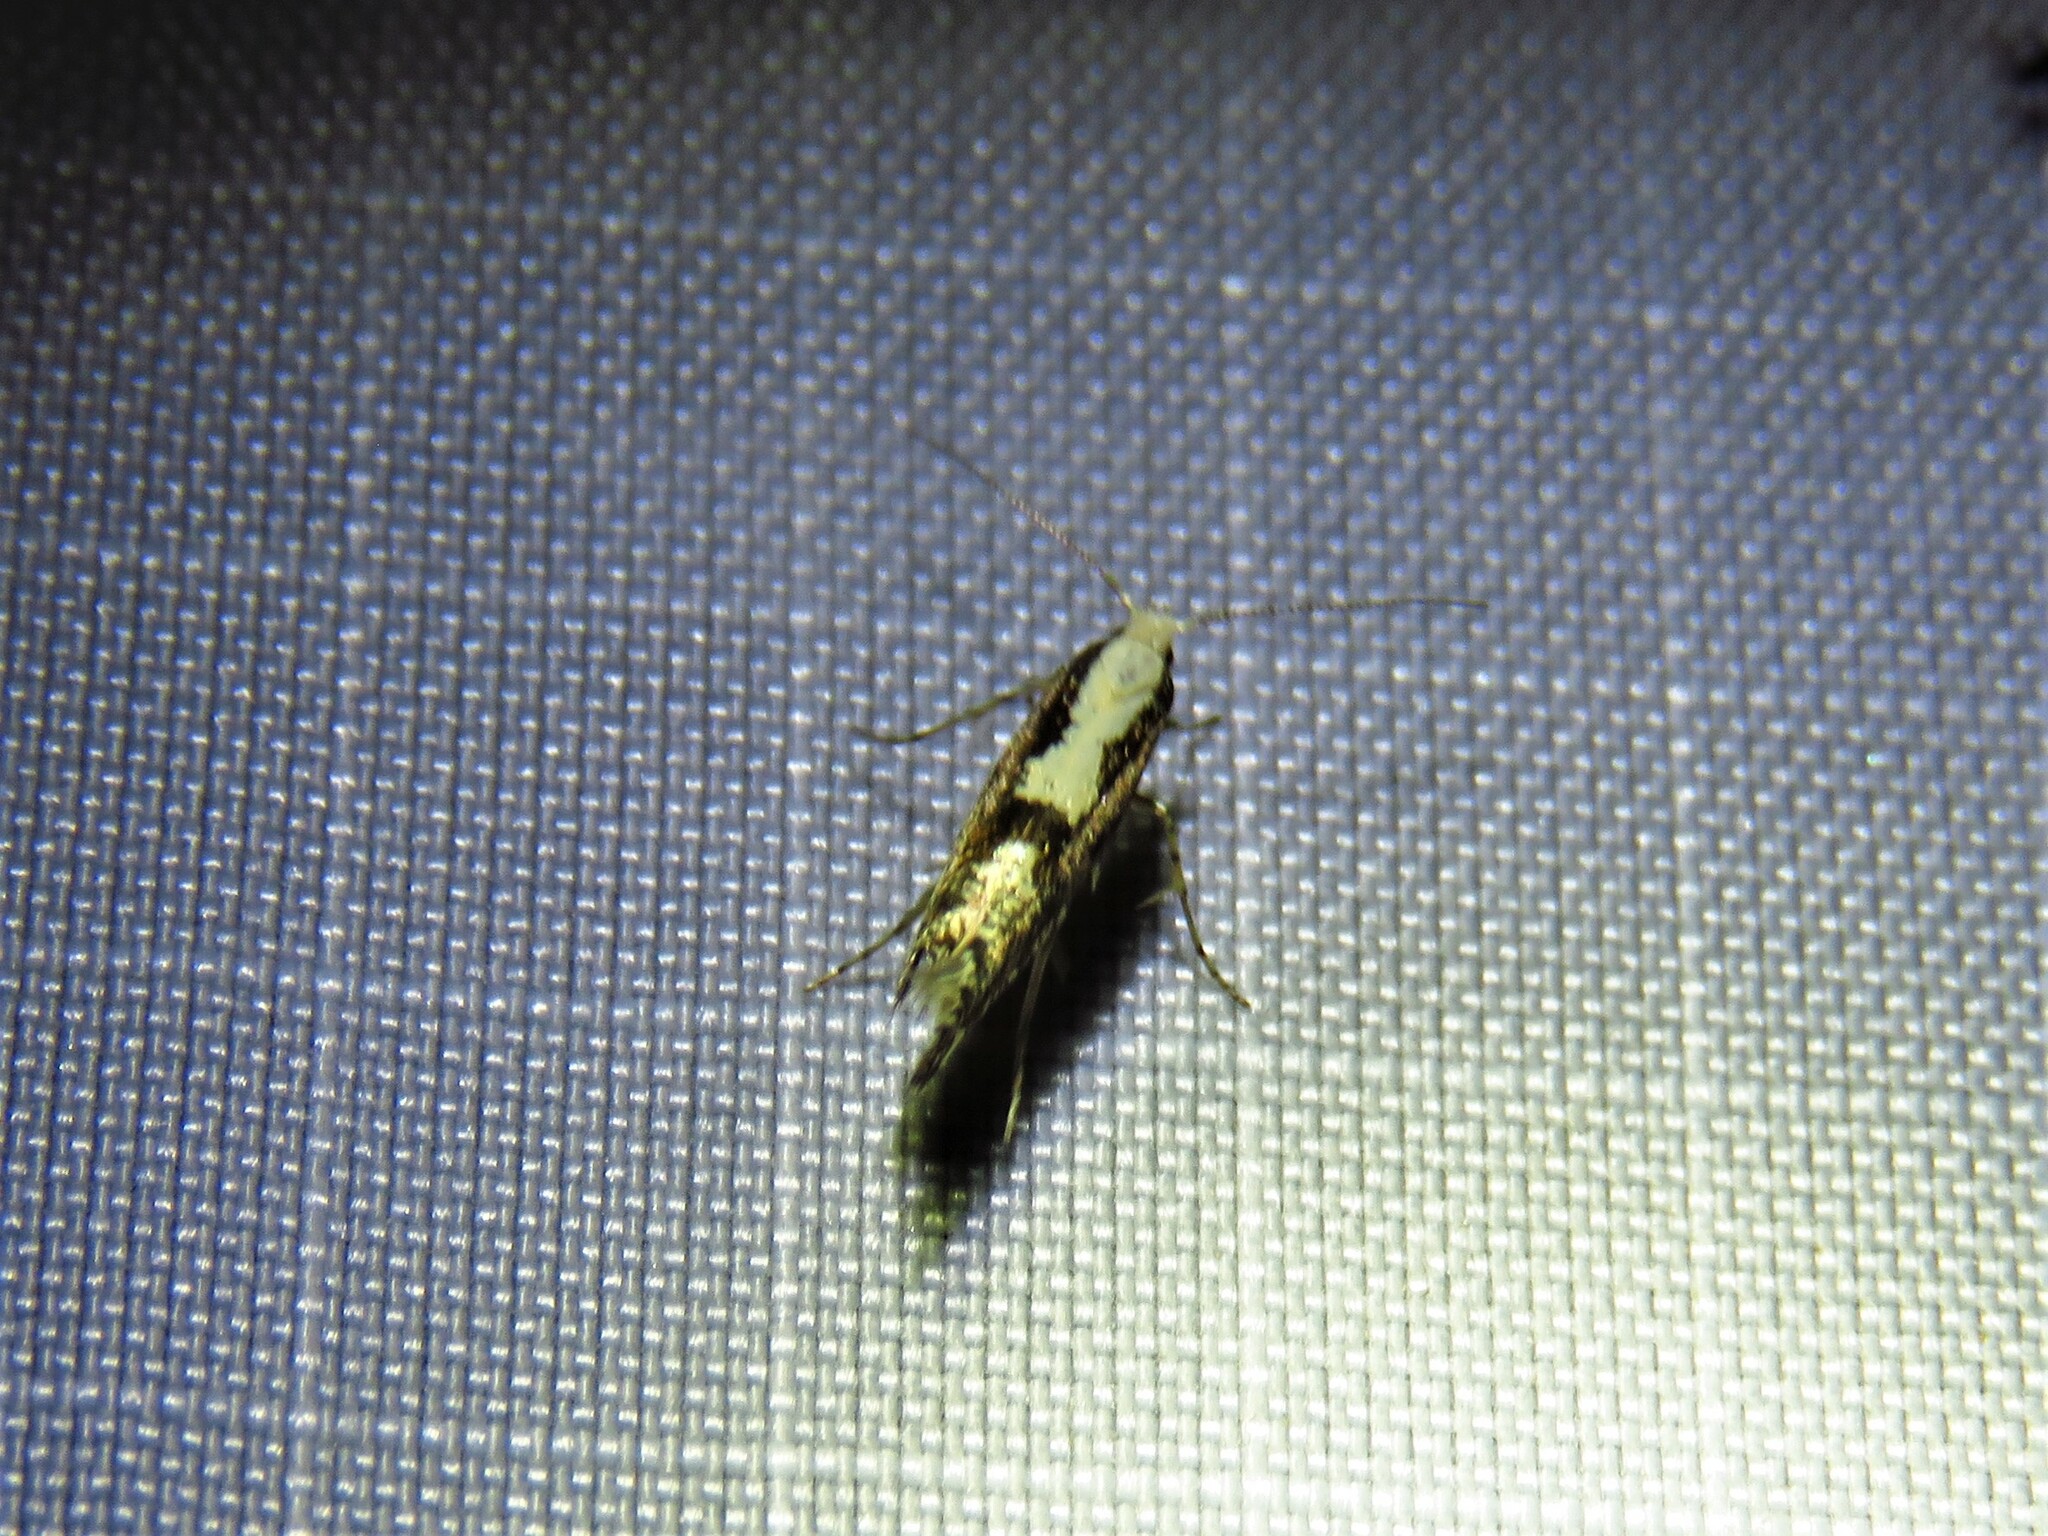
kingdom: Animalia
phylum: Arthropoda
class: Insecta
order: Lepidoptera
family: Argyresthiidae
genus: Argyresthia
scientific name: Argyresthia conjugella
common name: Apple fruit moth
